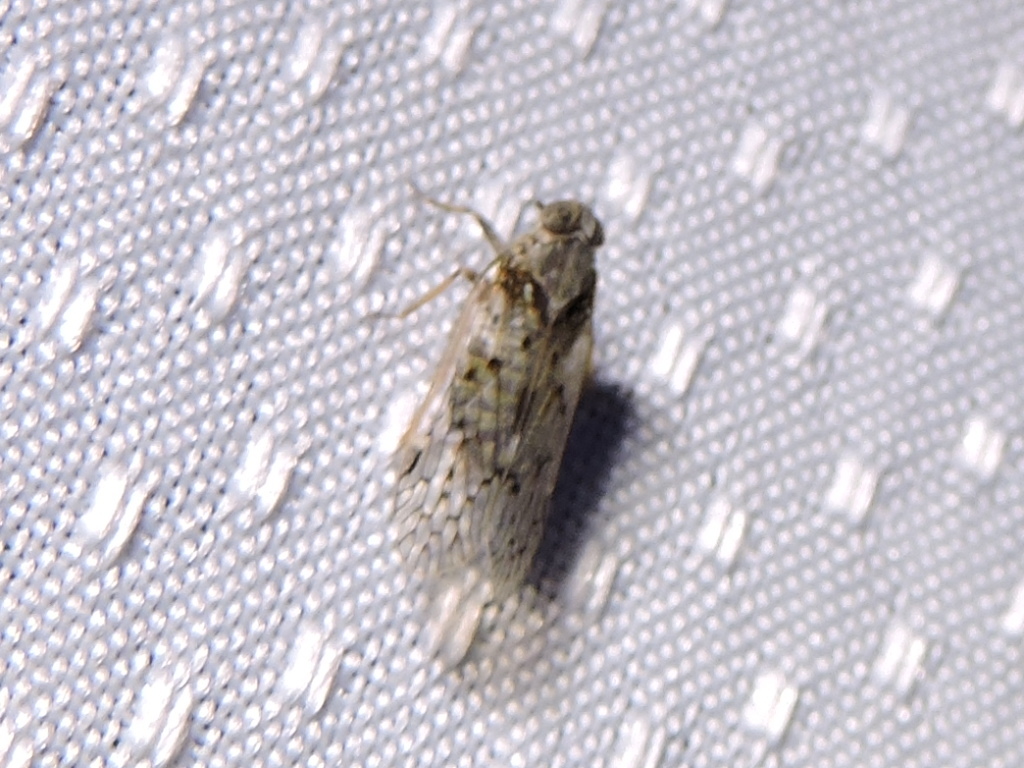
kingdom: Animalia
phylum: Arthropoda
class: Insecta
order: Hemiptera
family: Cixiidae
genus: Melanoliarus
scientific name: Melanoliarus aridus
